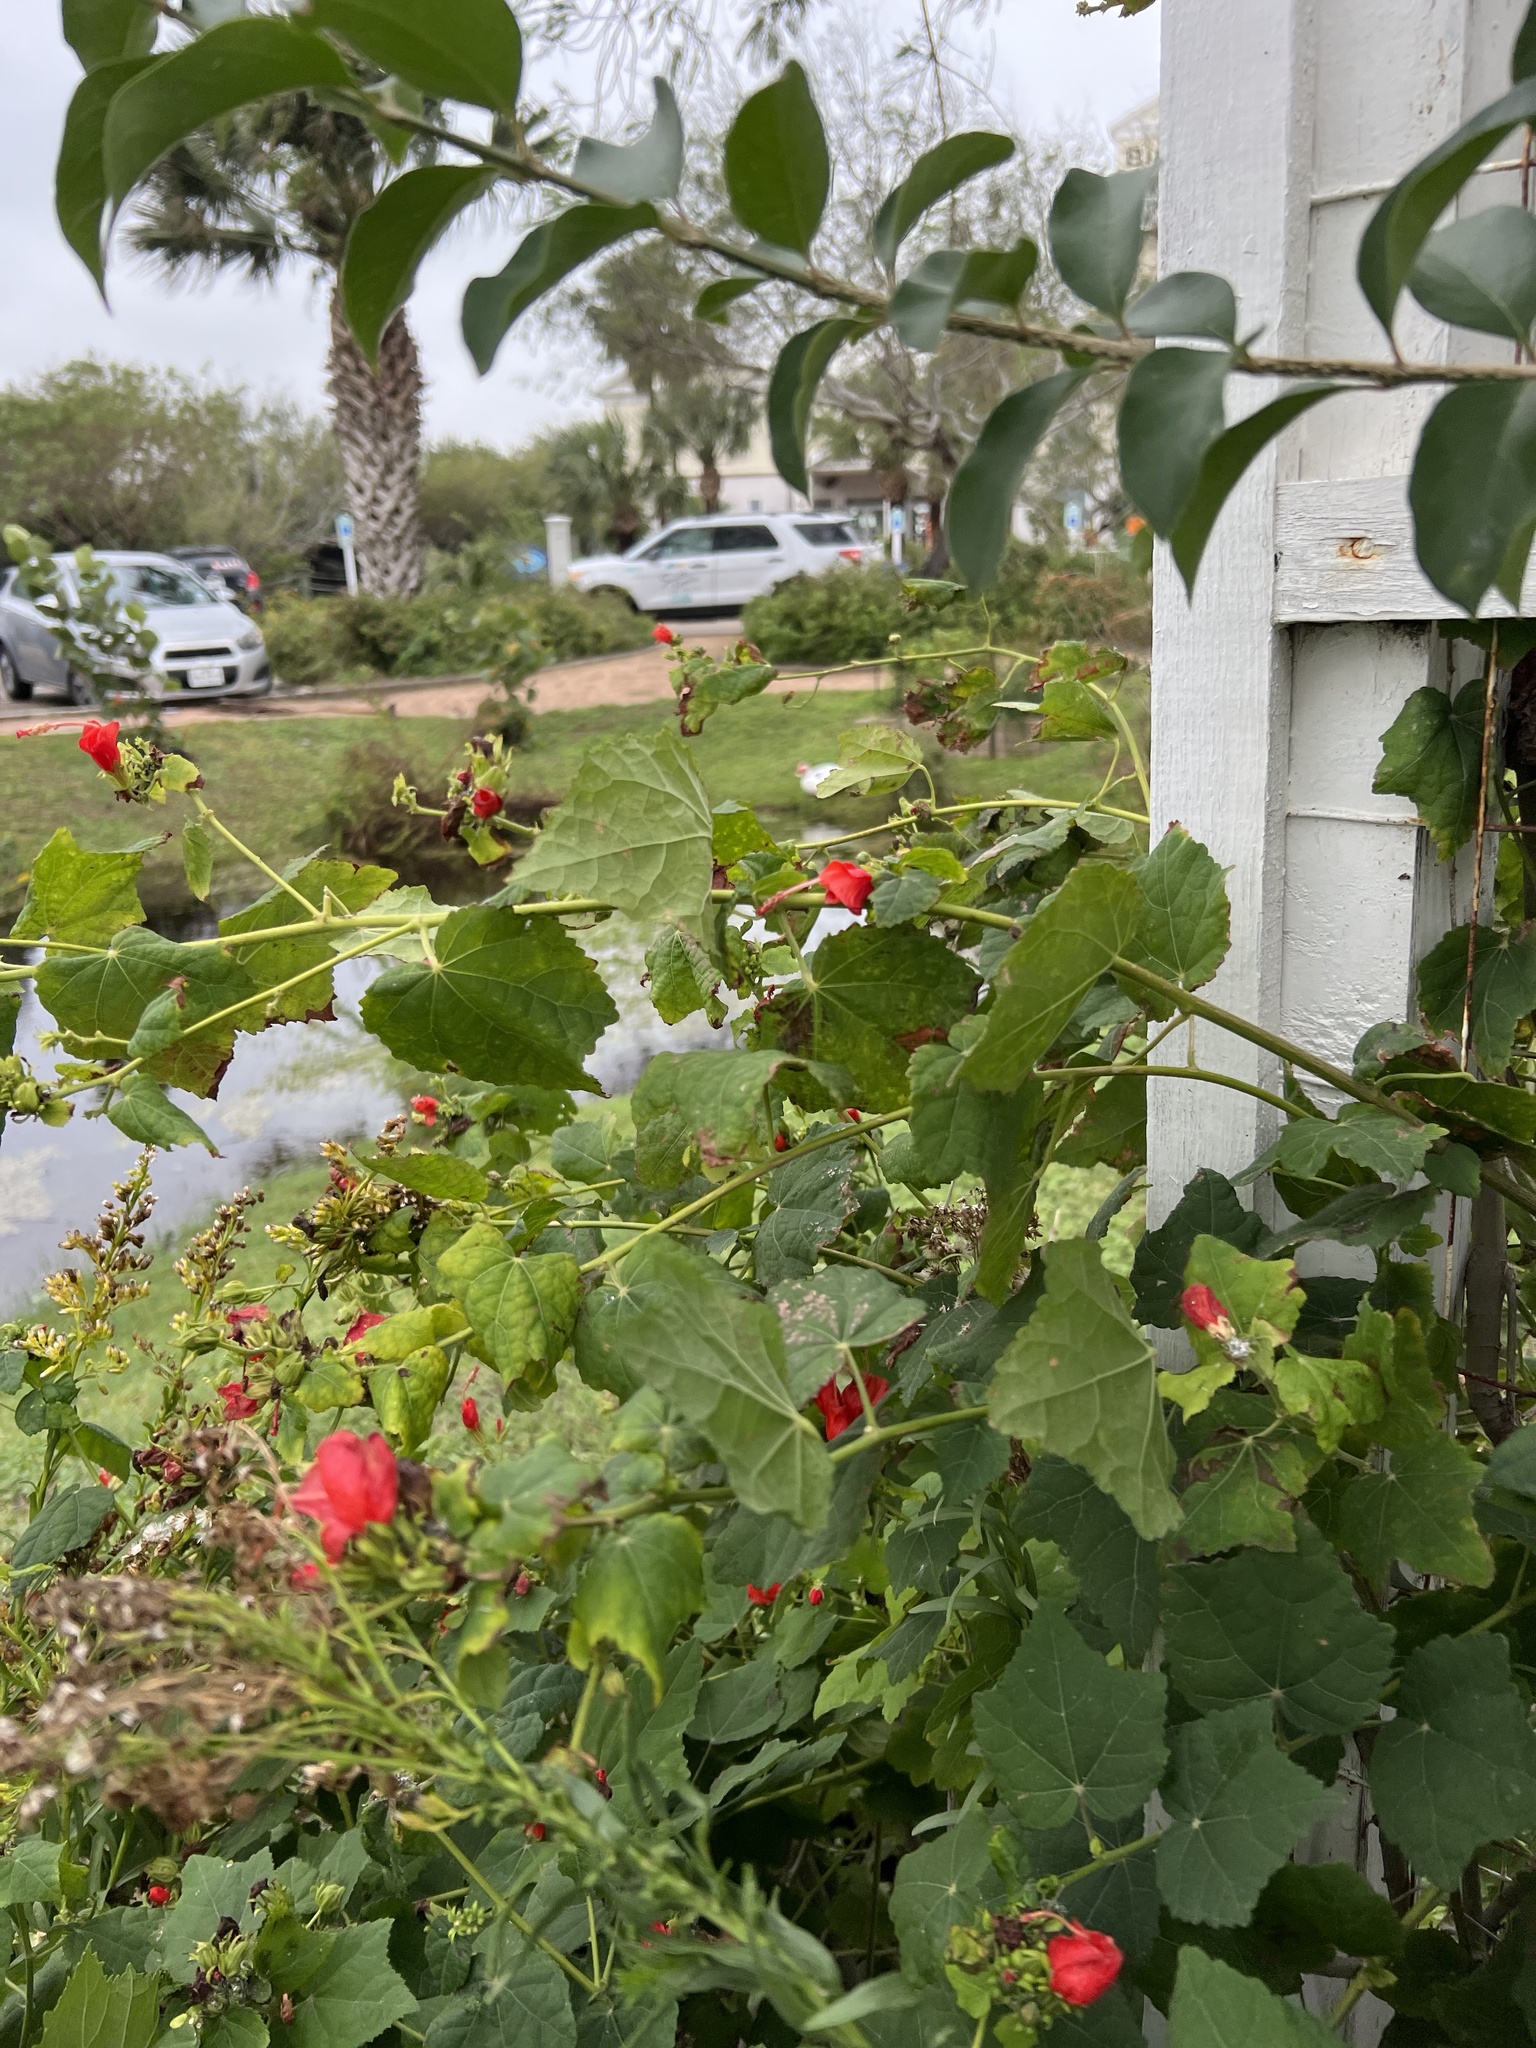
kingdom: Plantae
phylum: Tracheophyta
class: Magnoliopsida
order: Malvales
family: Malvaceae
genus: Malvaviscus
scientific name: Malvaviscus arboreus
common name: Wax mallow
